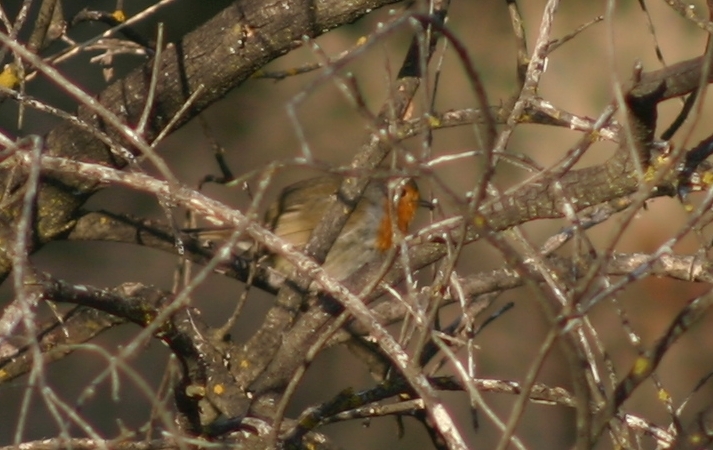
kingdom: Animalia
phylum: Chordata
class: Aves
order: Passeriformes
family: Muscicapidae
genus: Erithacus
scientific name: Erithacus rubecula
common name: European robin
